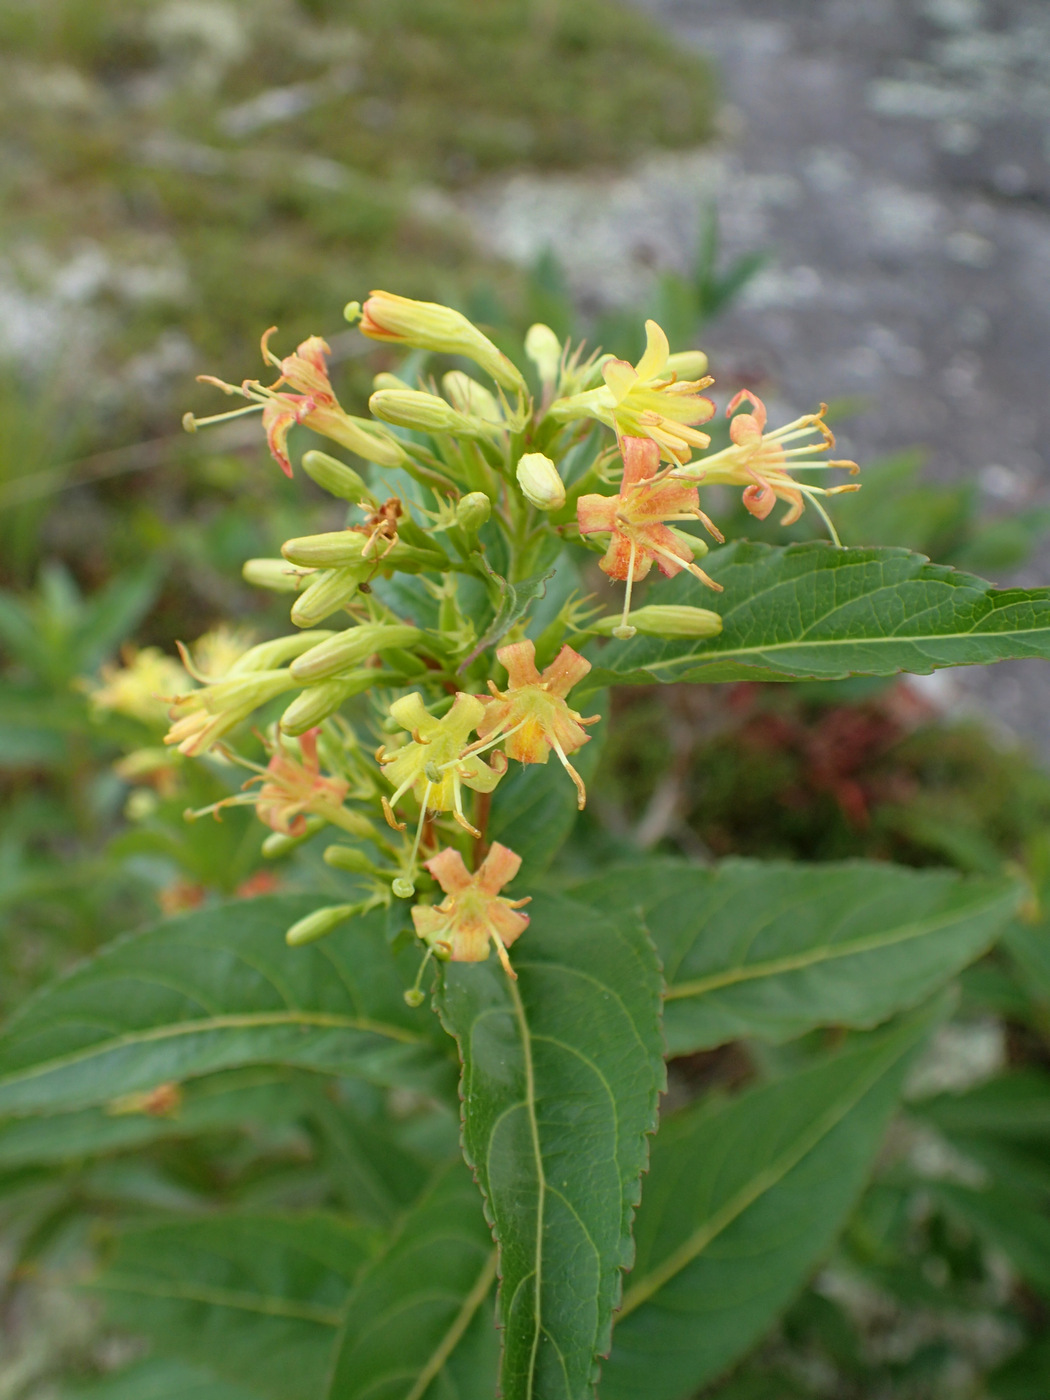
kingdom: Plantae
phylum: Tracheophyta
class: Magnoliopsida
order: Dipsacales
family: Caprifoliaceae
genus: Diervilla
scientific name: Diervilla sessilifolia
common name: Bush-honeysuckle
